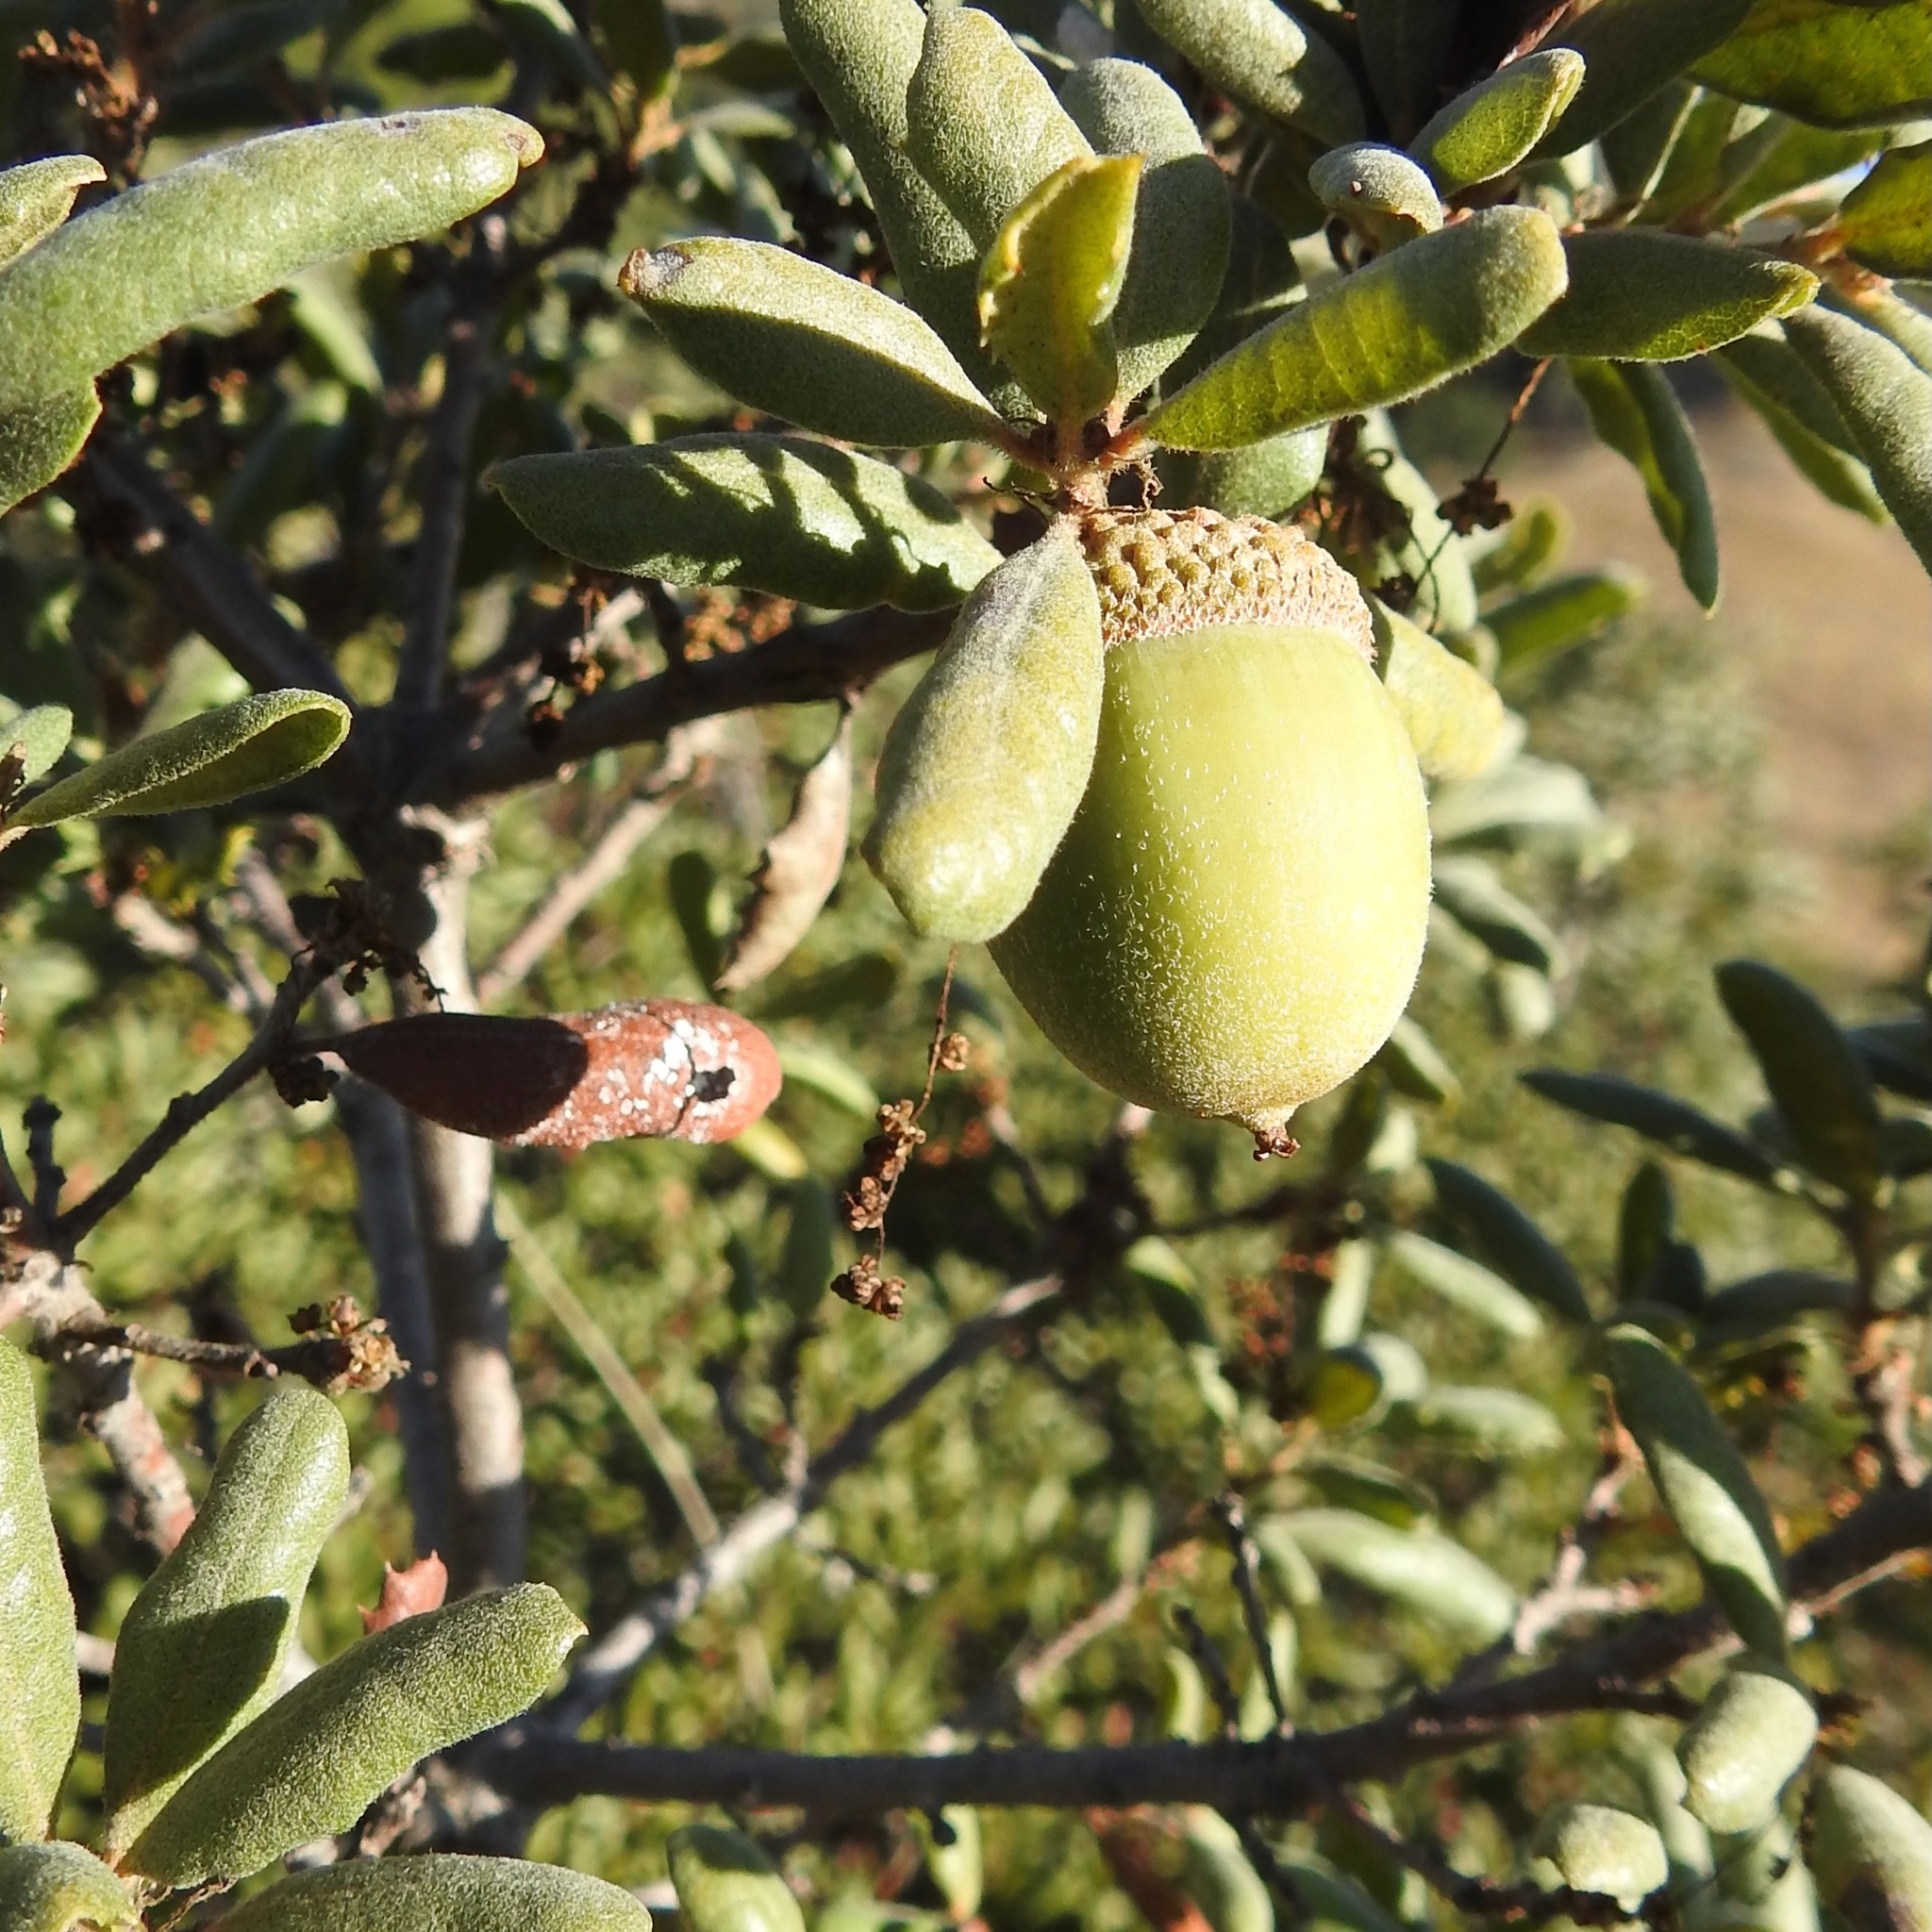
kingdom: Plantae
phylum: Tracheophyta
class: Magnoliopsida
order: Fagales
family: Fagaceae
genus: Quercus
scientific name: Quercus durata
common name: Leather oak
